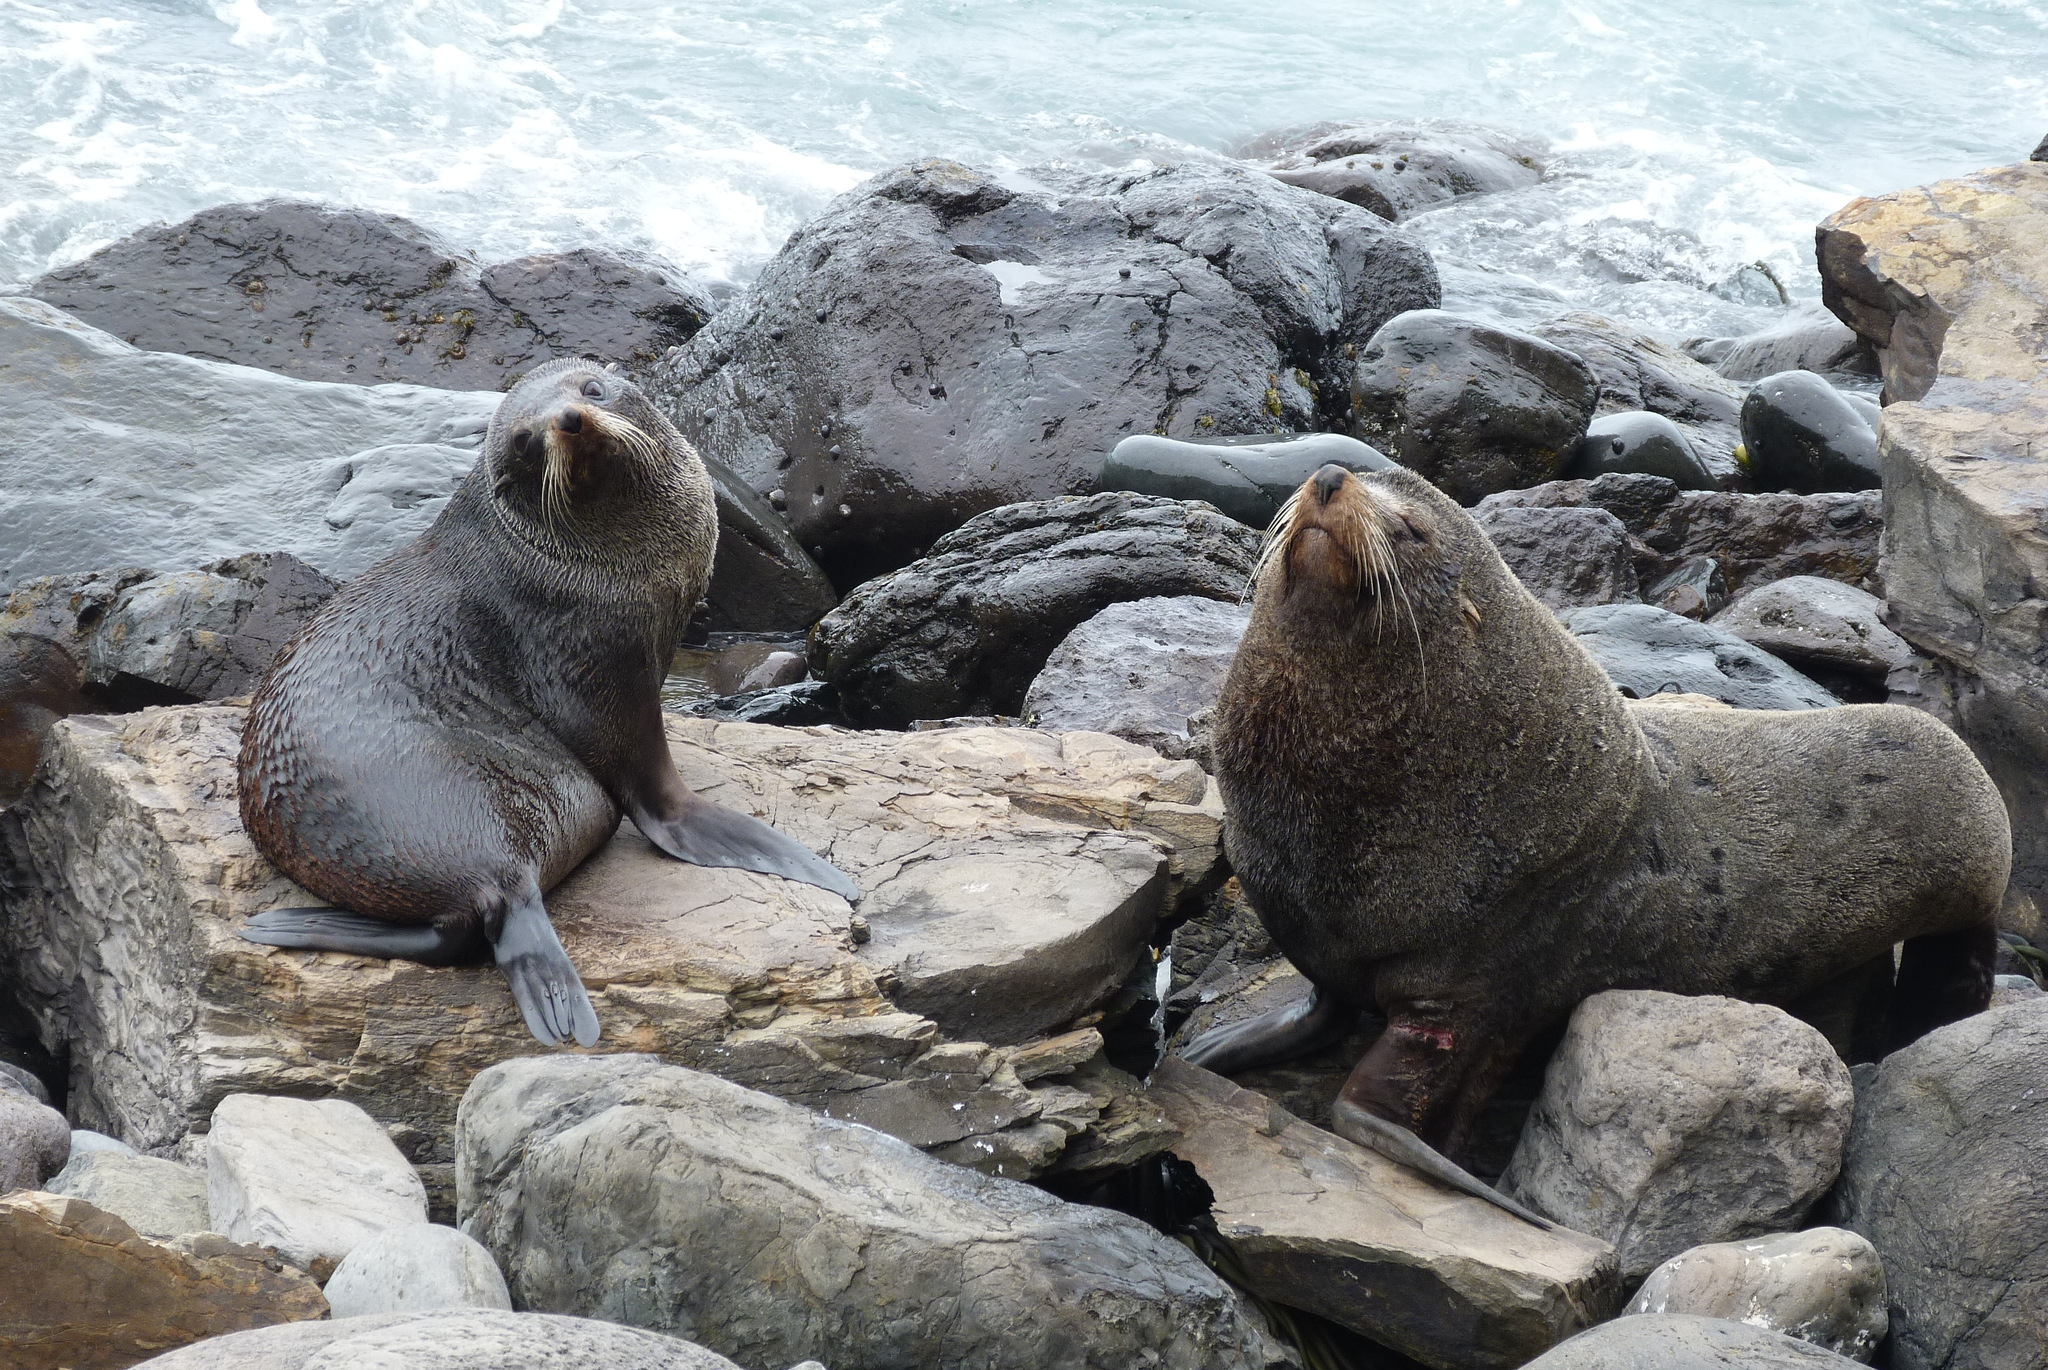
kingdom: Animalia
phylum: Chordata
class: Mammalia
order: Carnivora
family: Otariidae
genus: Arctocephalus
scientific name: Arctocephalus forsteri
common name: New zealand fur seal
